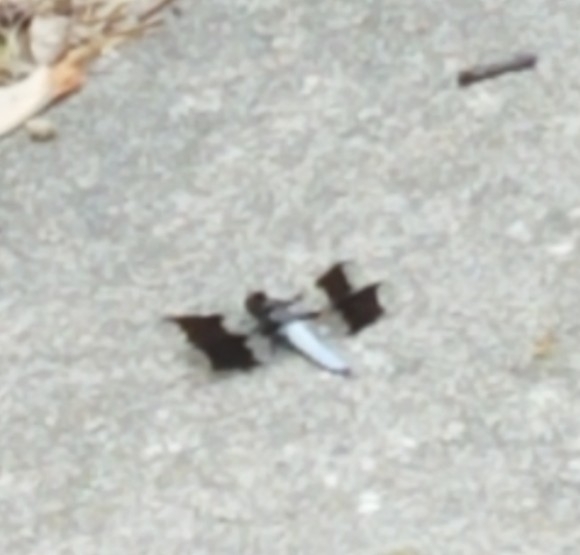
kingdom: Animalia
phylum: Arthropoda
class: Insecta
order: Odonata
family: Libellulidae
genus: Plathemis
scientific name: Plathemis lydia
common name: Common whitetail
